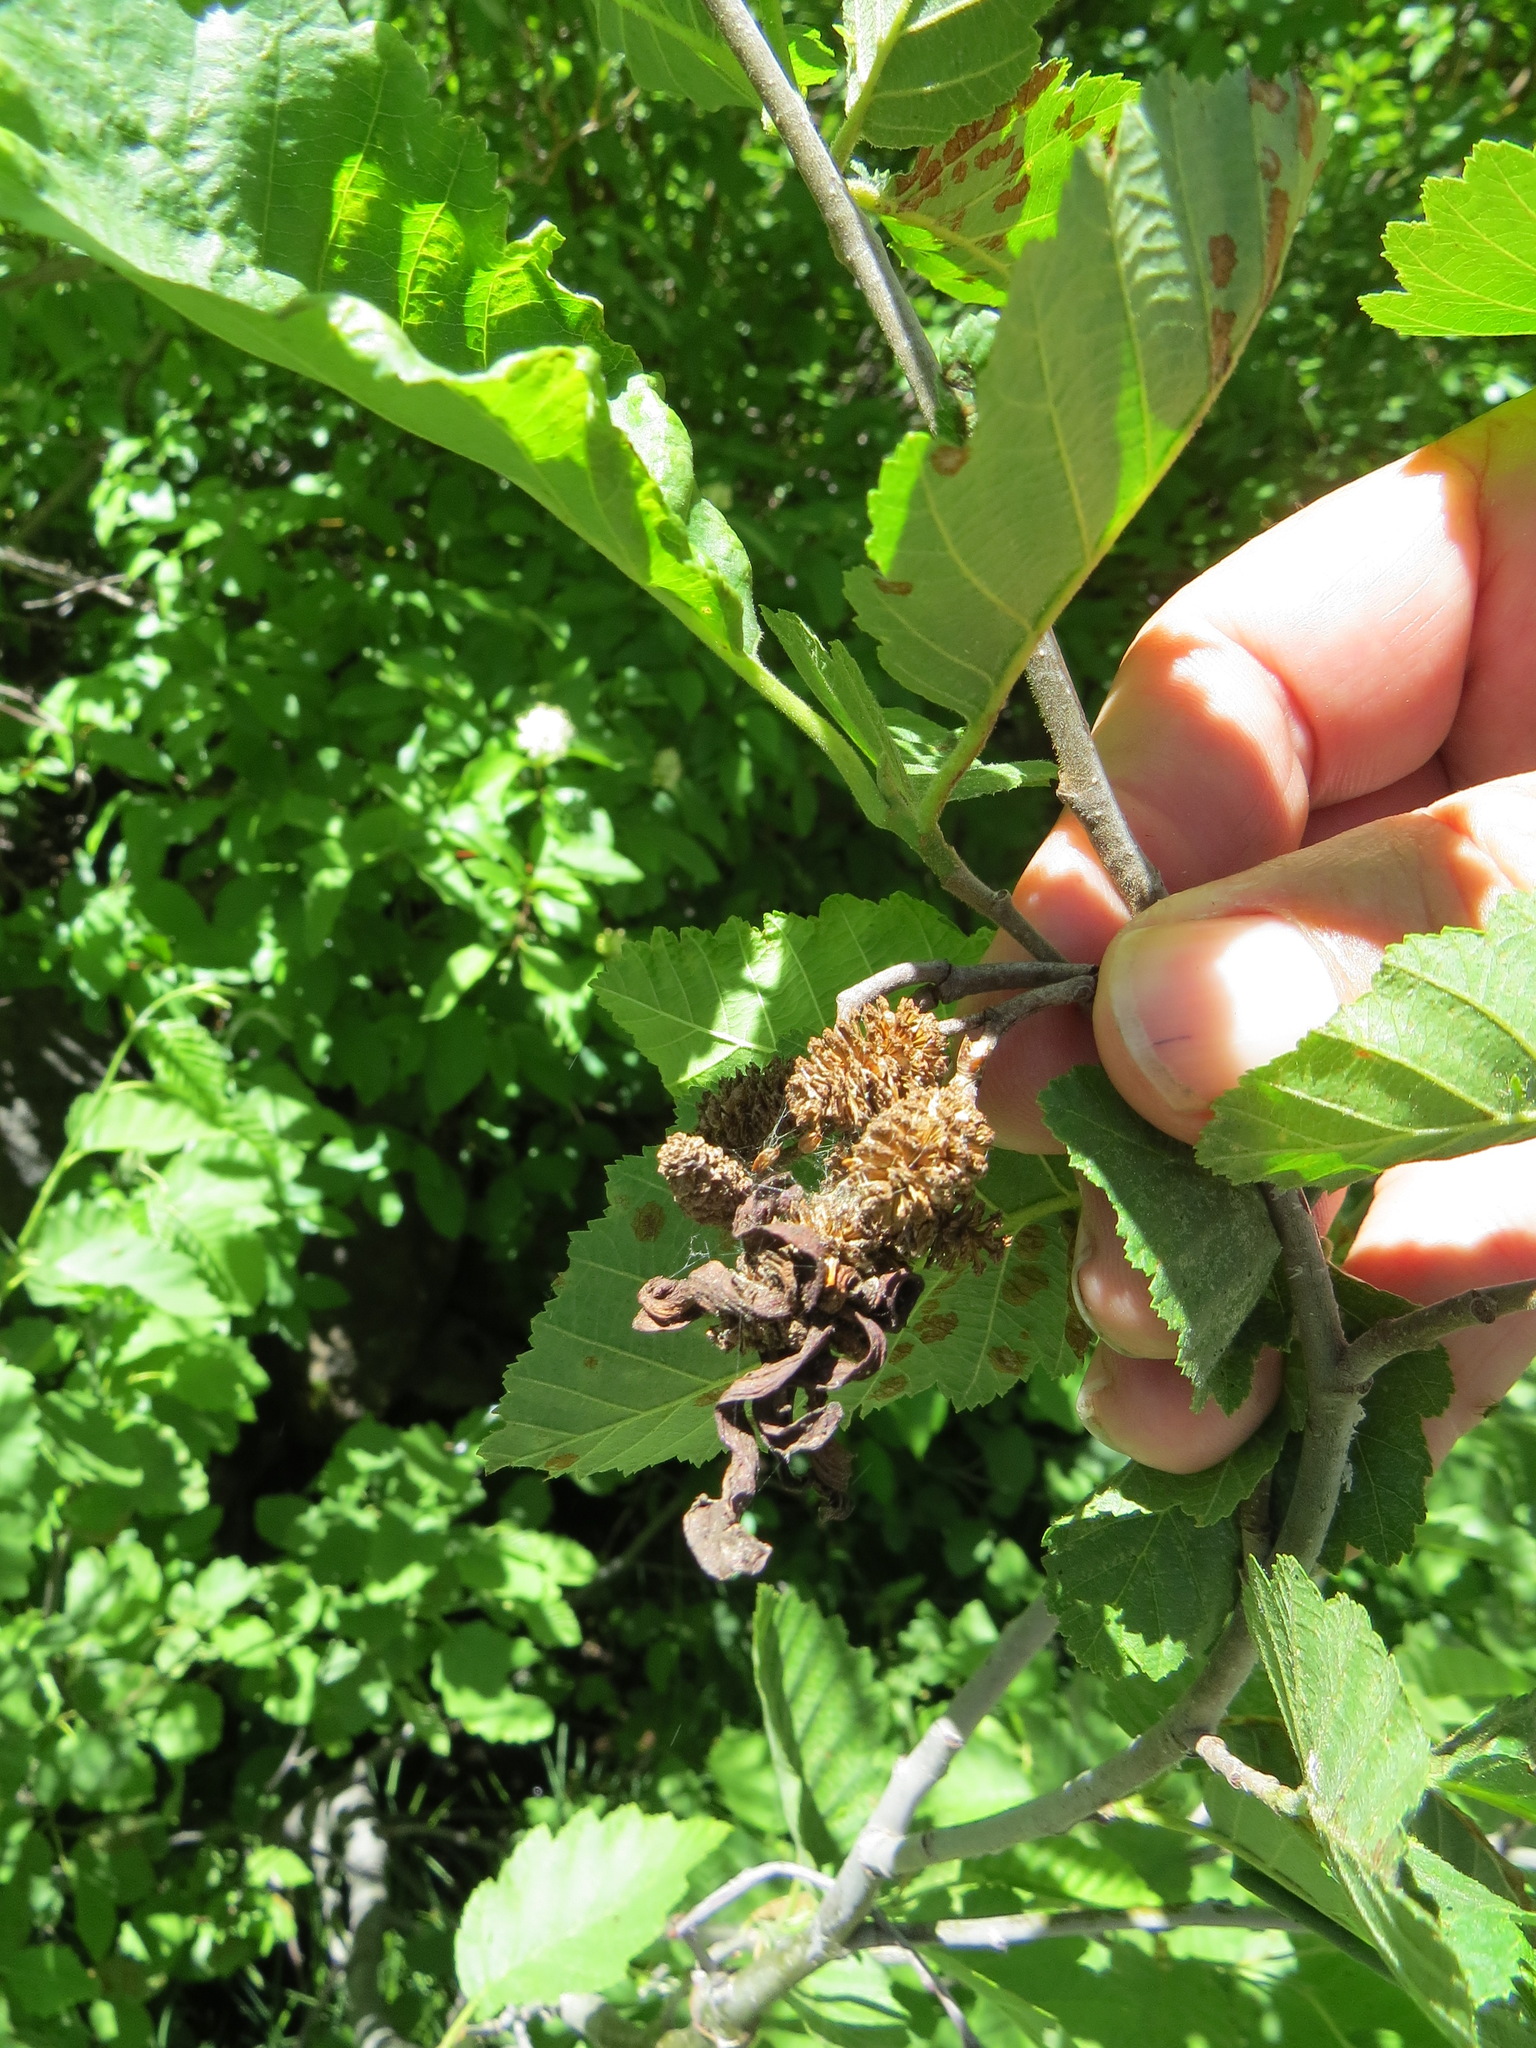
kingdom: Fungi
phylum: Ascomycota
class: Taphrinomycetes
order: Taphrinales
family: Taphrinaceae
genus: Taphrina
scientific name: Taphrina occidentalis
